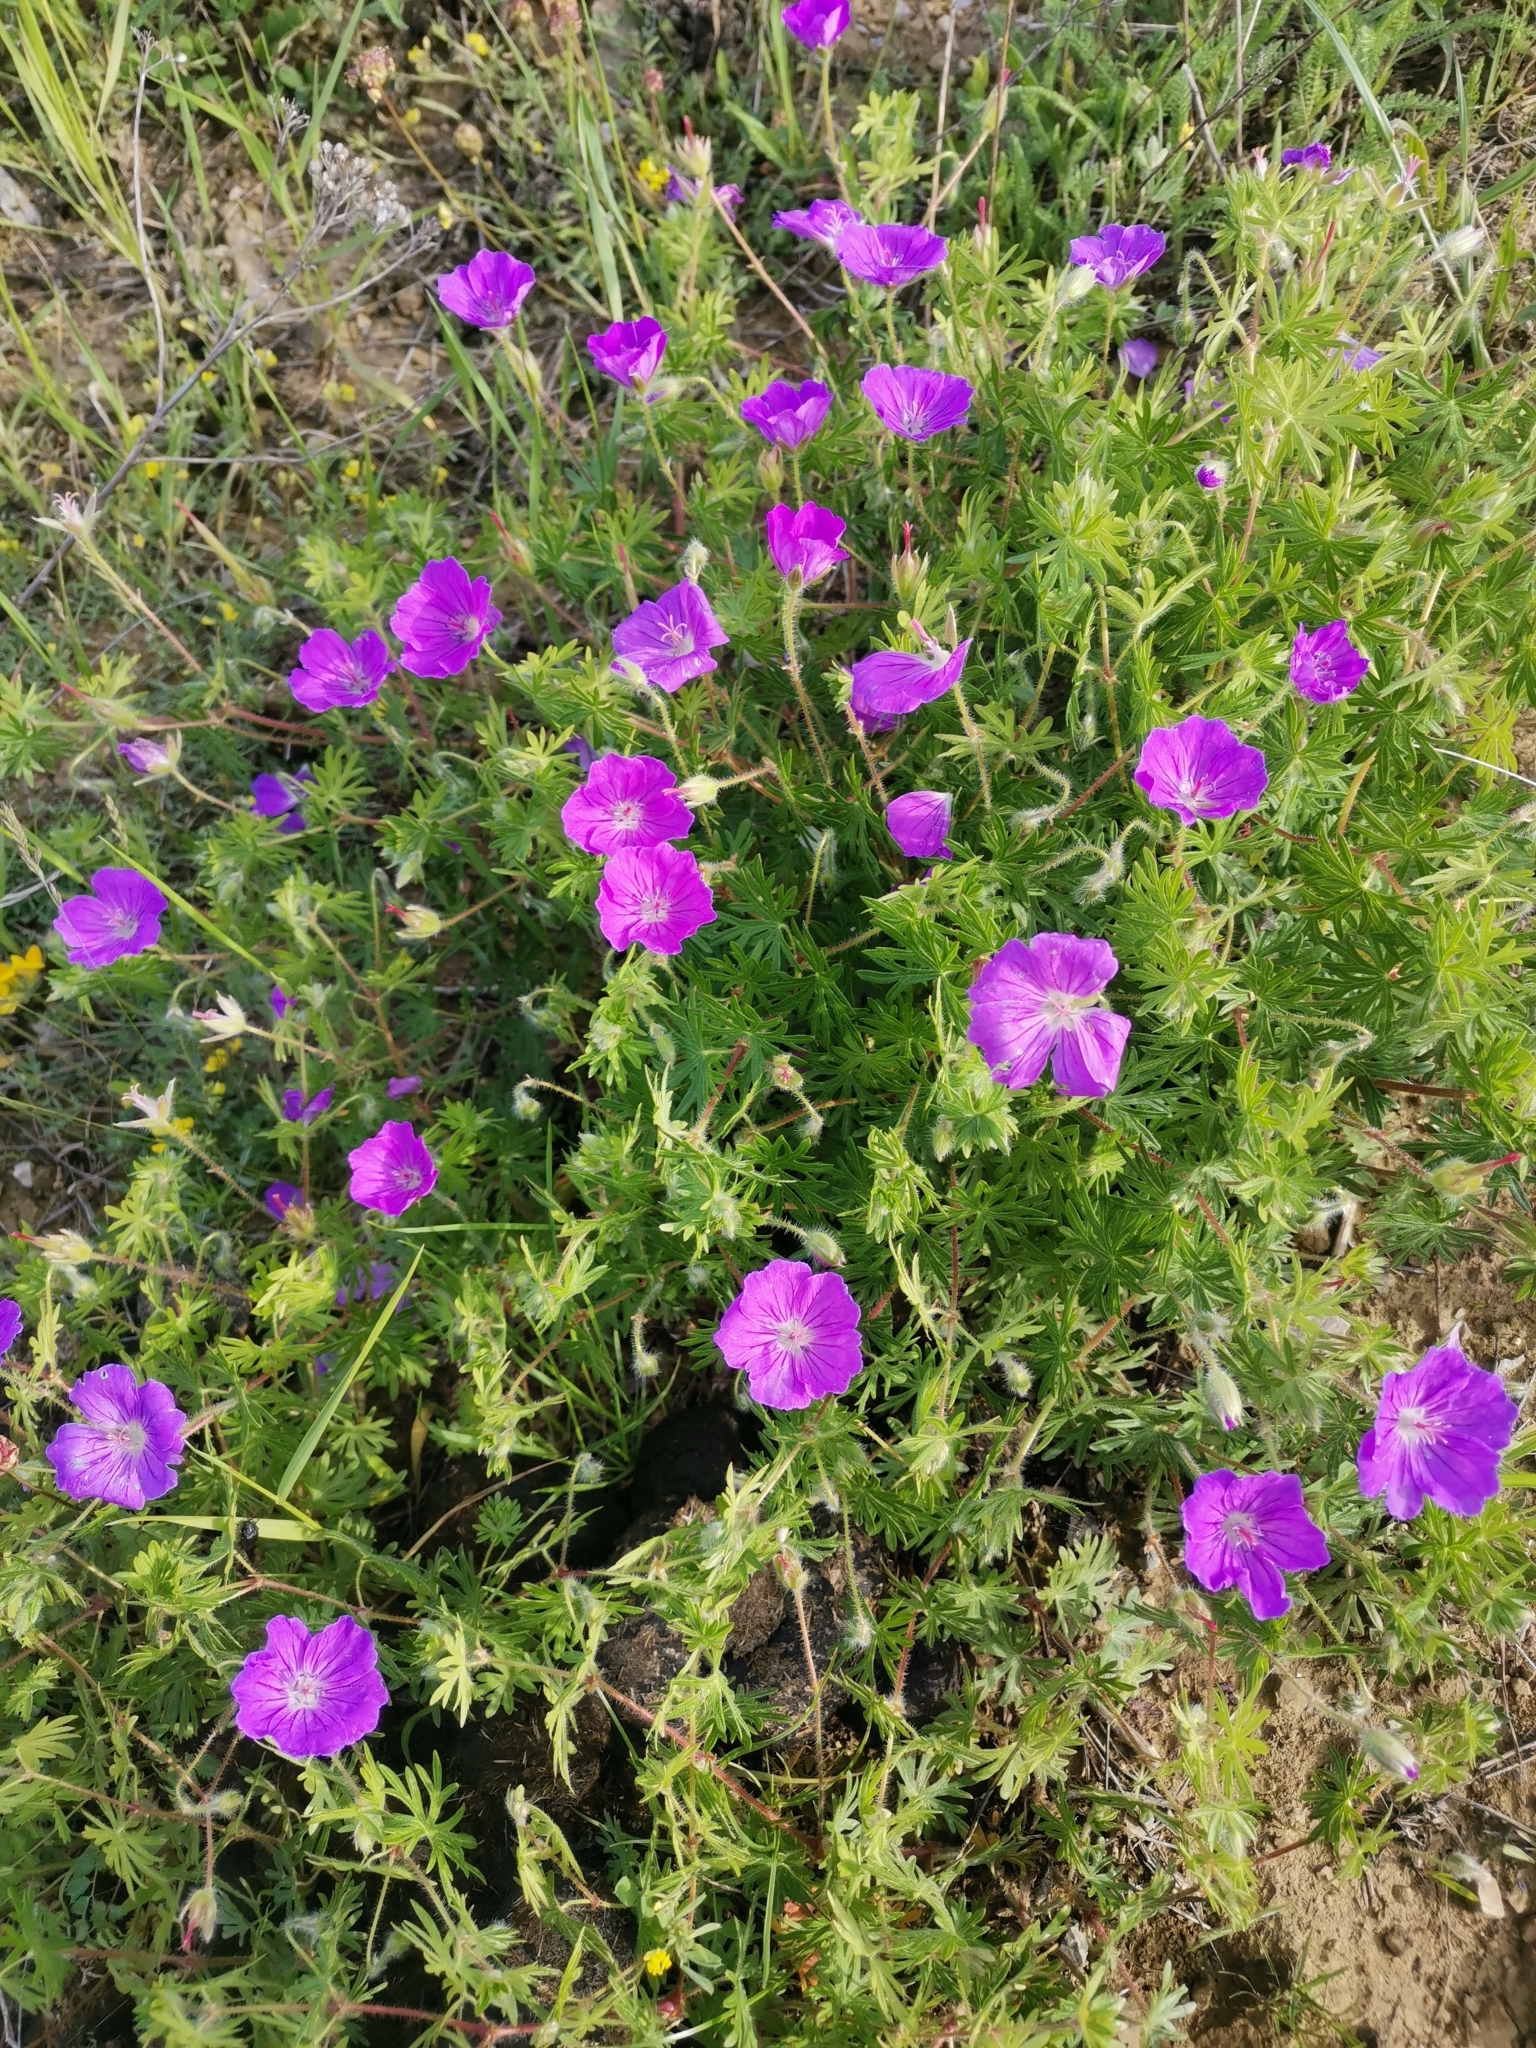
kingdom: Plantae
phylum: Tracheophyta
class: Magnoliopsida
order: Geraniales
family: Geraniaceae
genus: Geranium
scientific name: Geranium sanguineum
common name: Bloody crane's-bill
